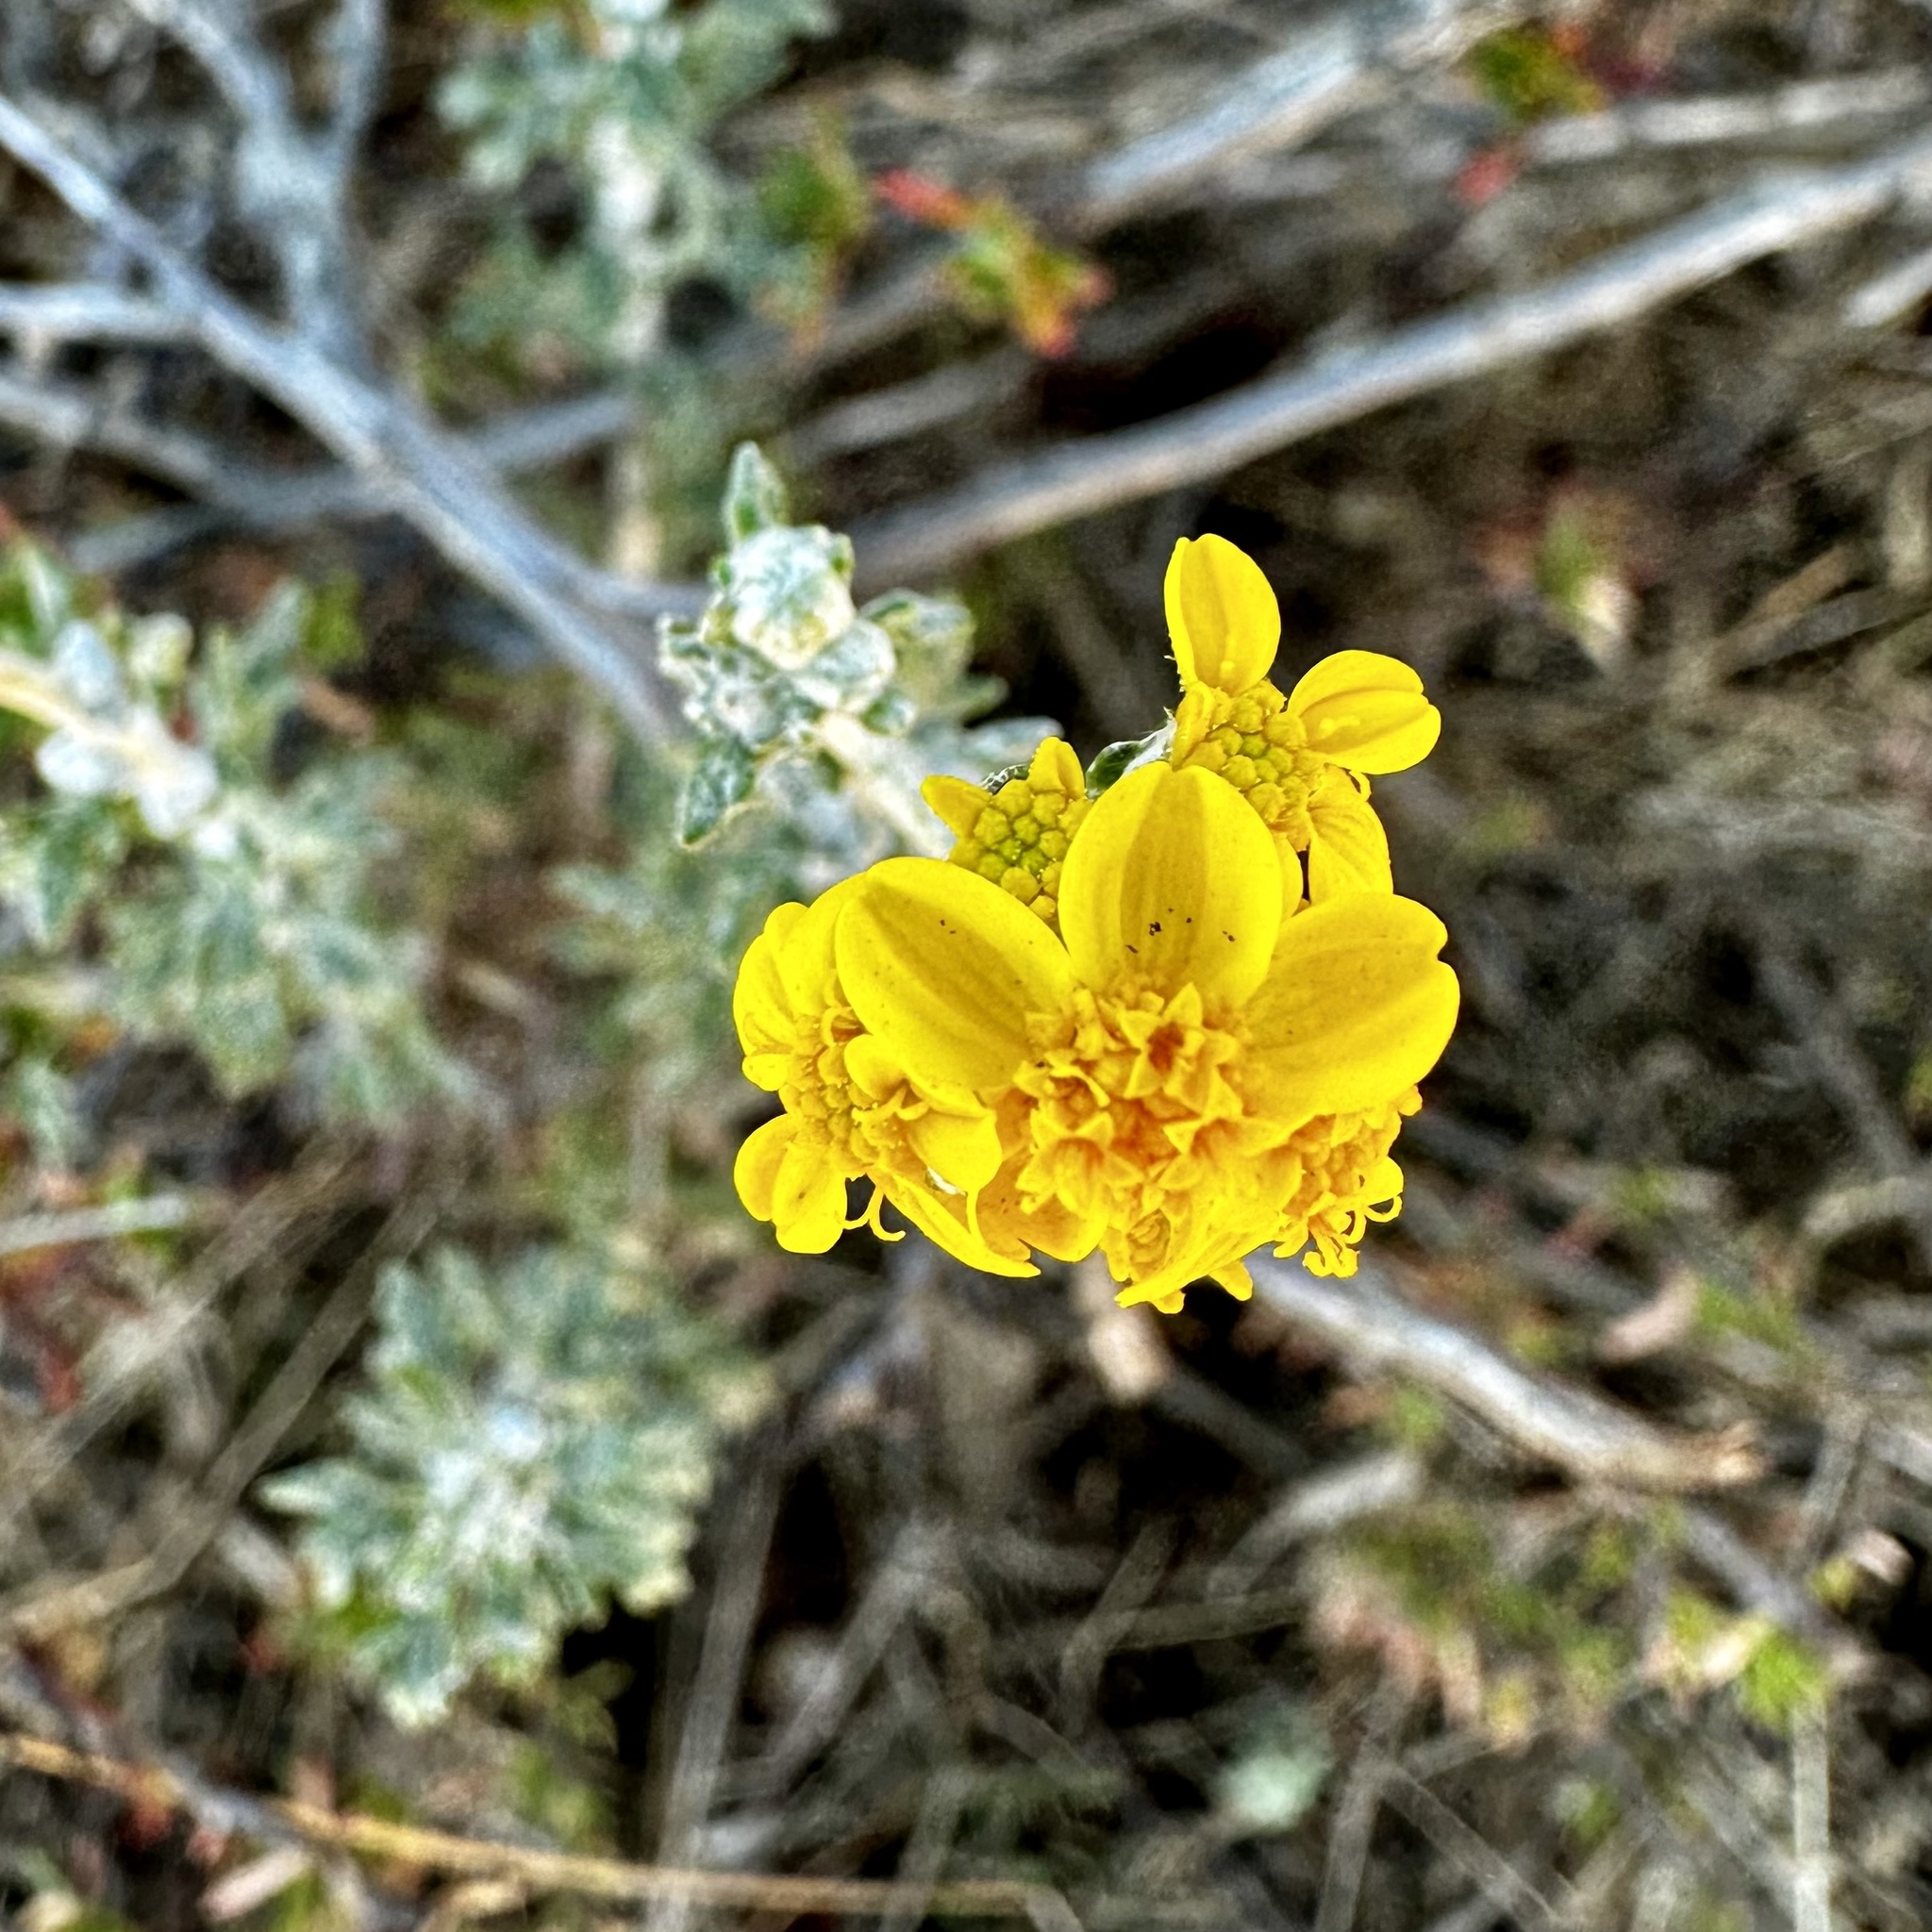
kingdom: Plantae
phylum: Tracheophyta
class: Magnoliopsida
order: Asterales
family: Asteraceae
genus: Eriophyllum
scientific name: Eriophyllum confertiflorum
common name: Golden-yarrow
